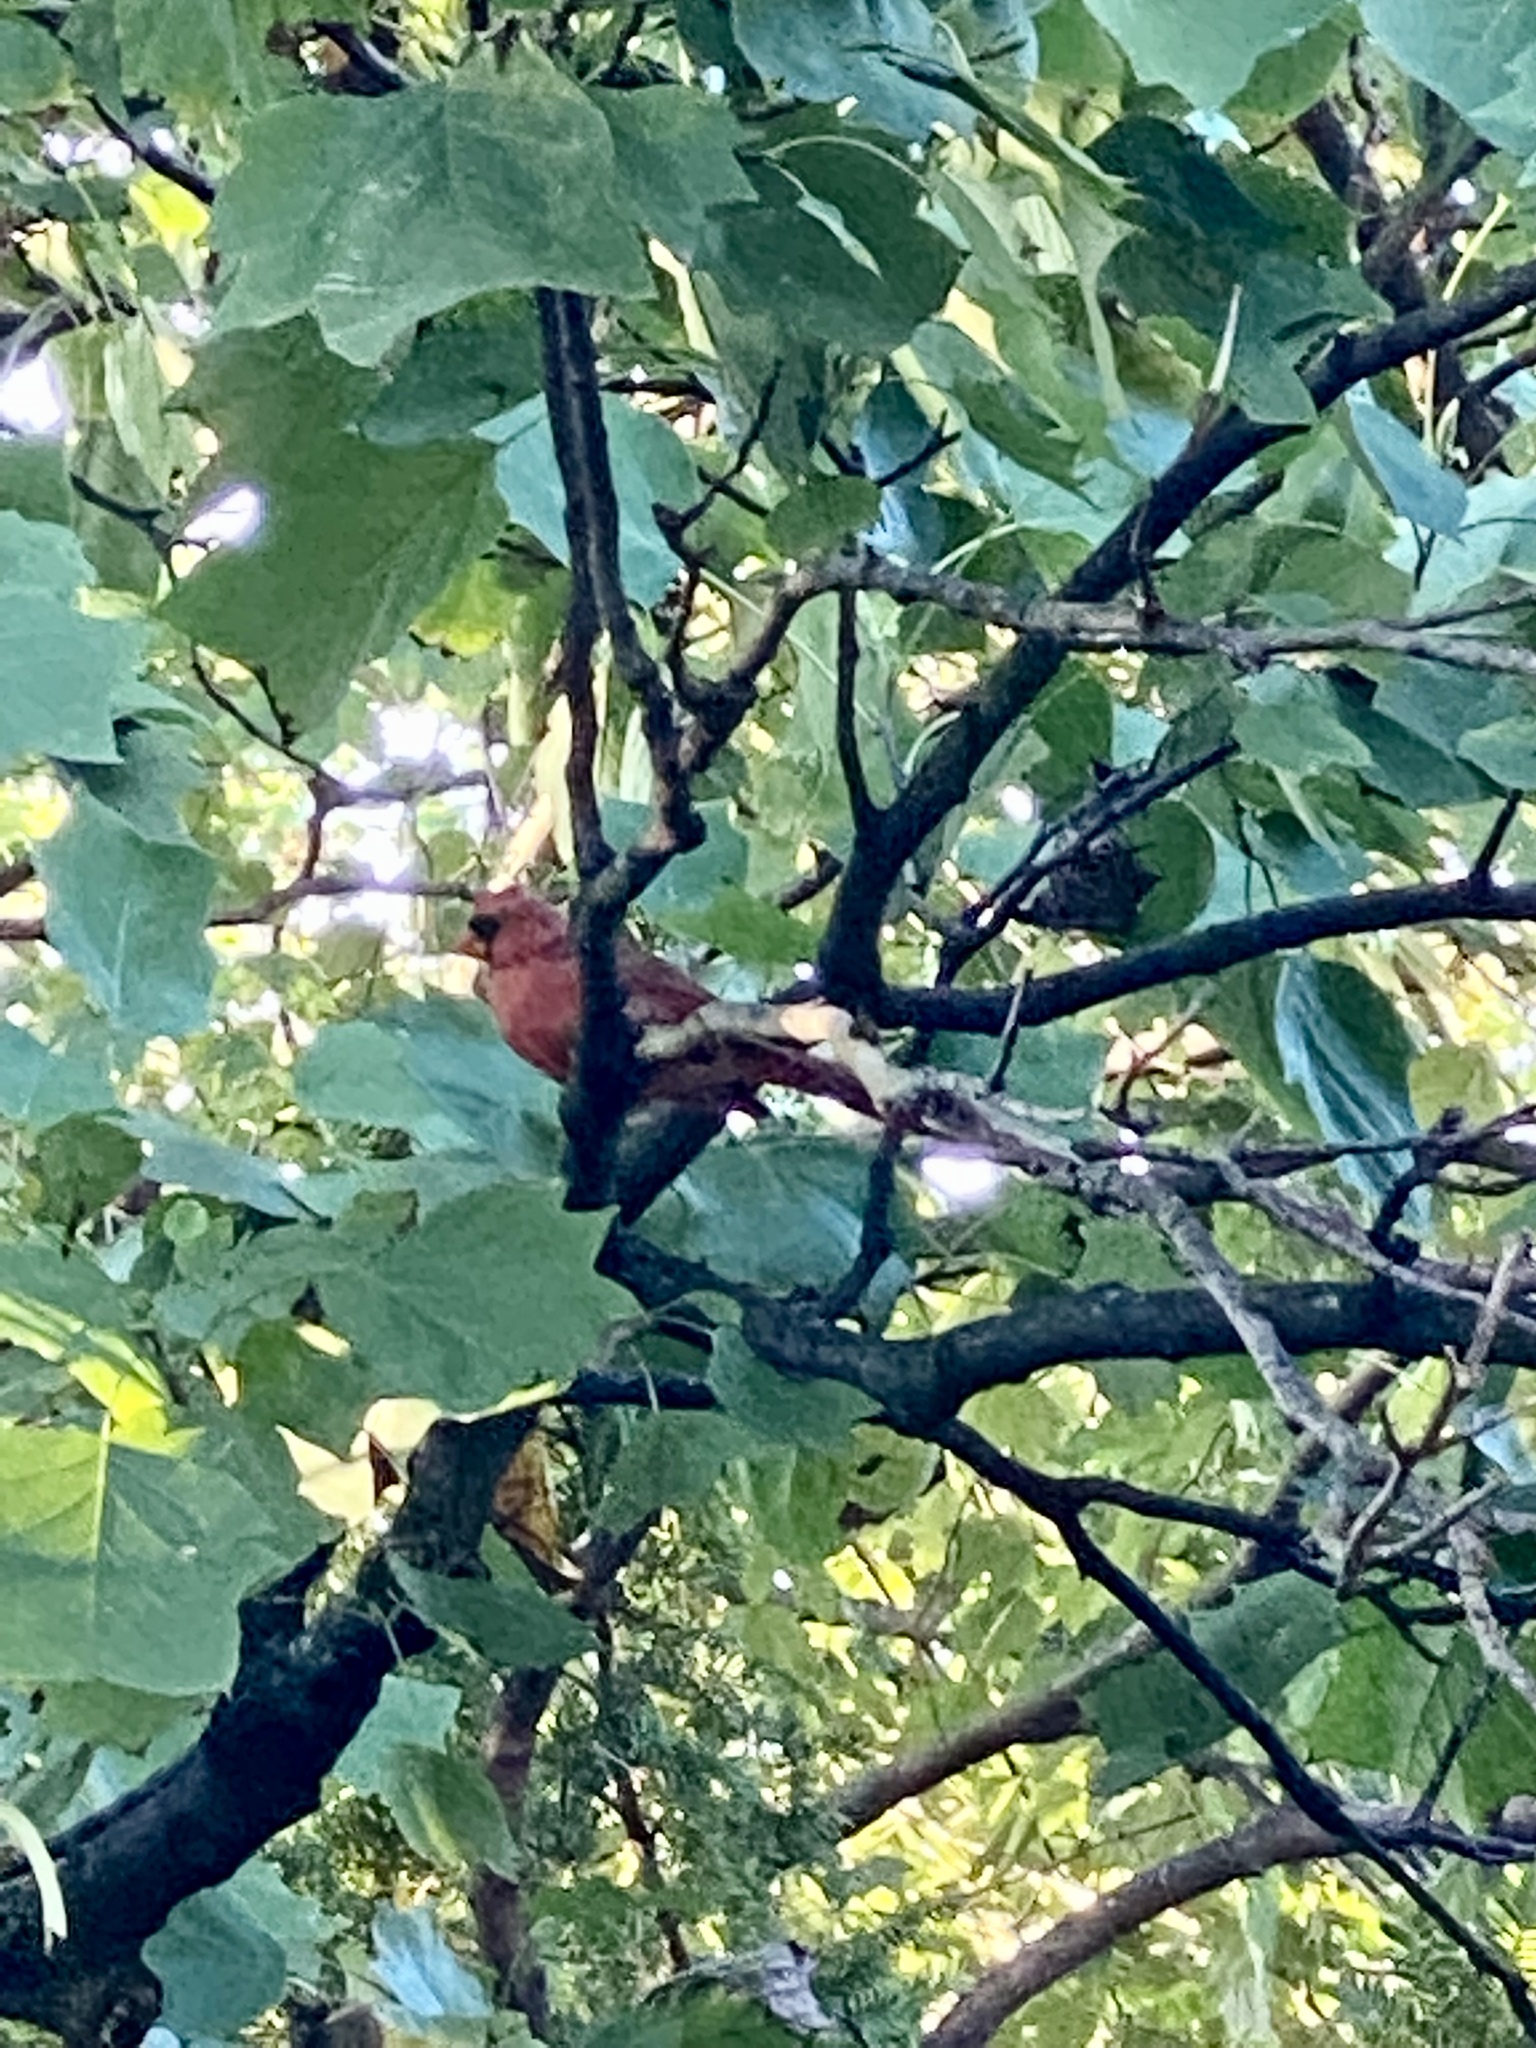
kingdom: Animalia
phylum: Chordata
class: Aves
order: Passeriformes
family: Cardinalidae
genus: Cardinalis
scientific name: Cardinalis cardinalis
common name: Northern cardinal
